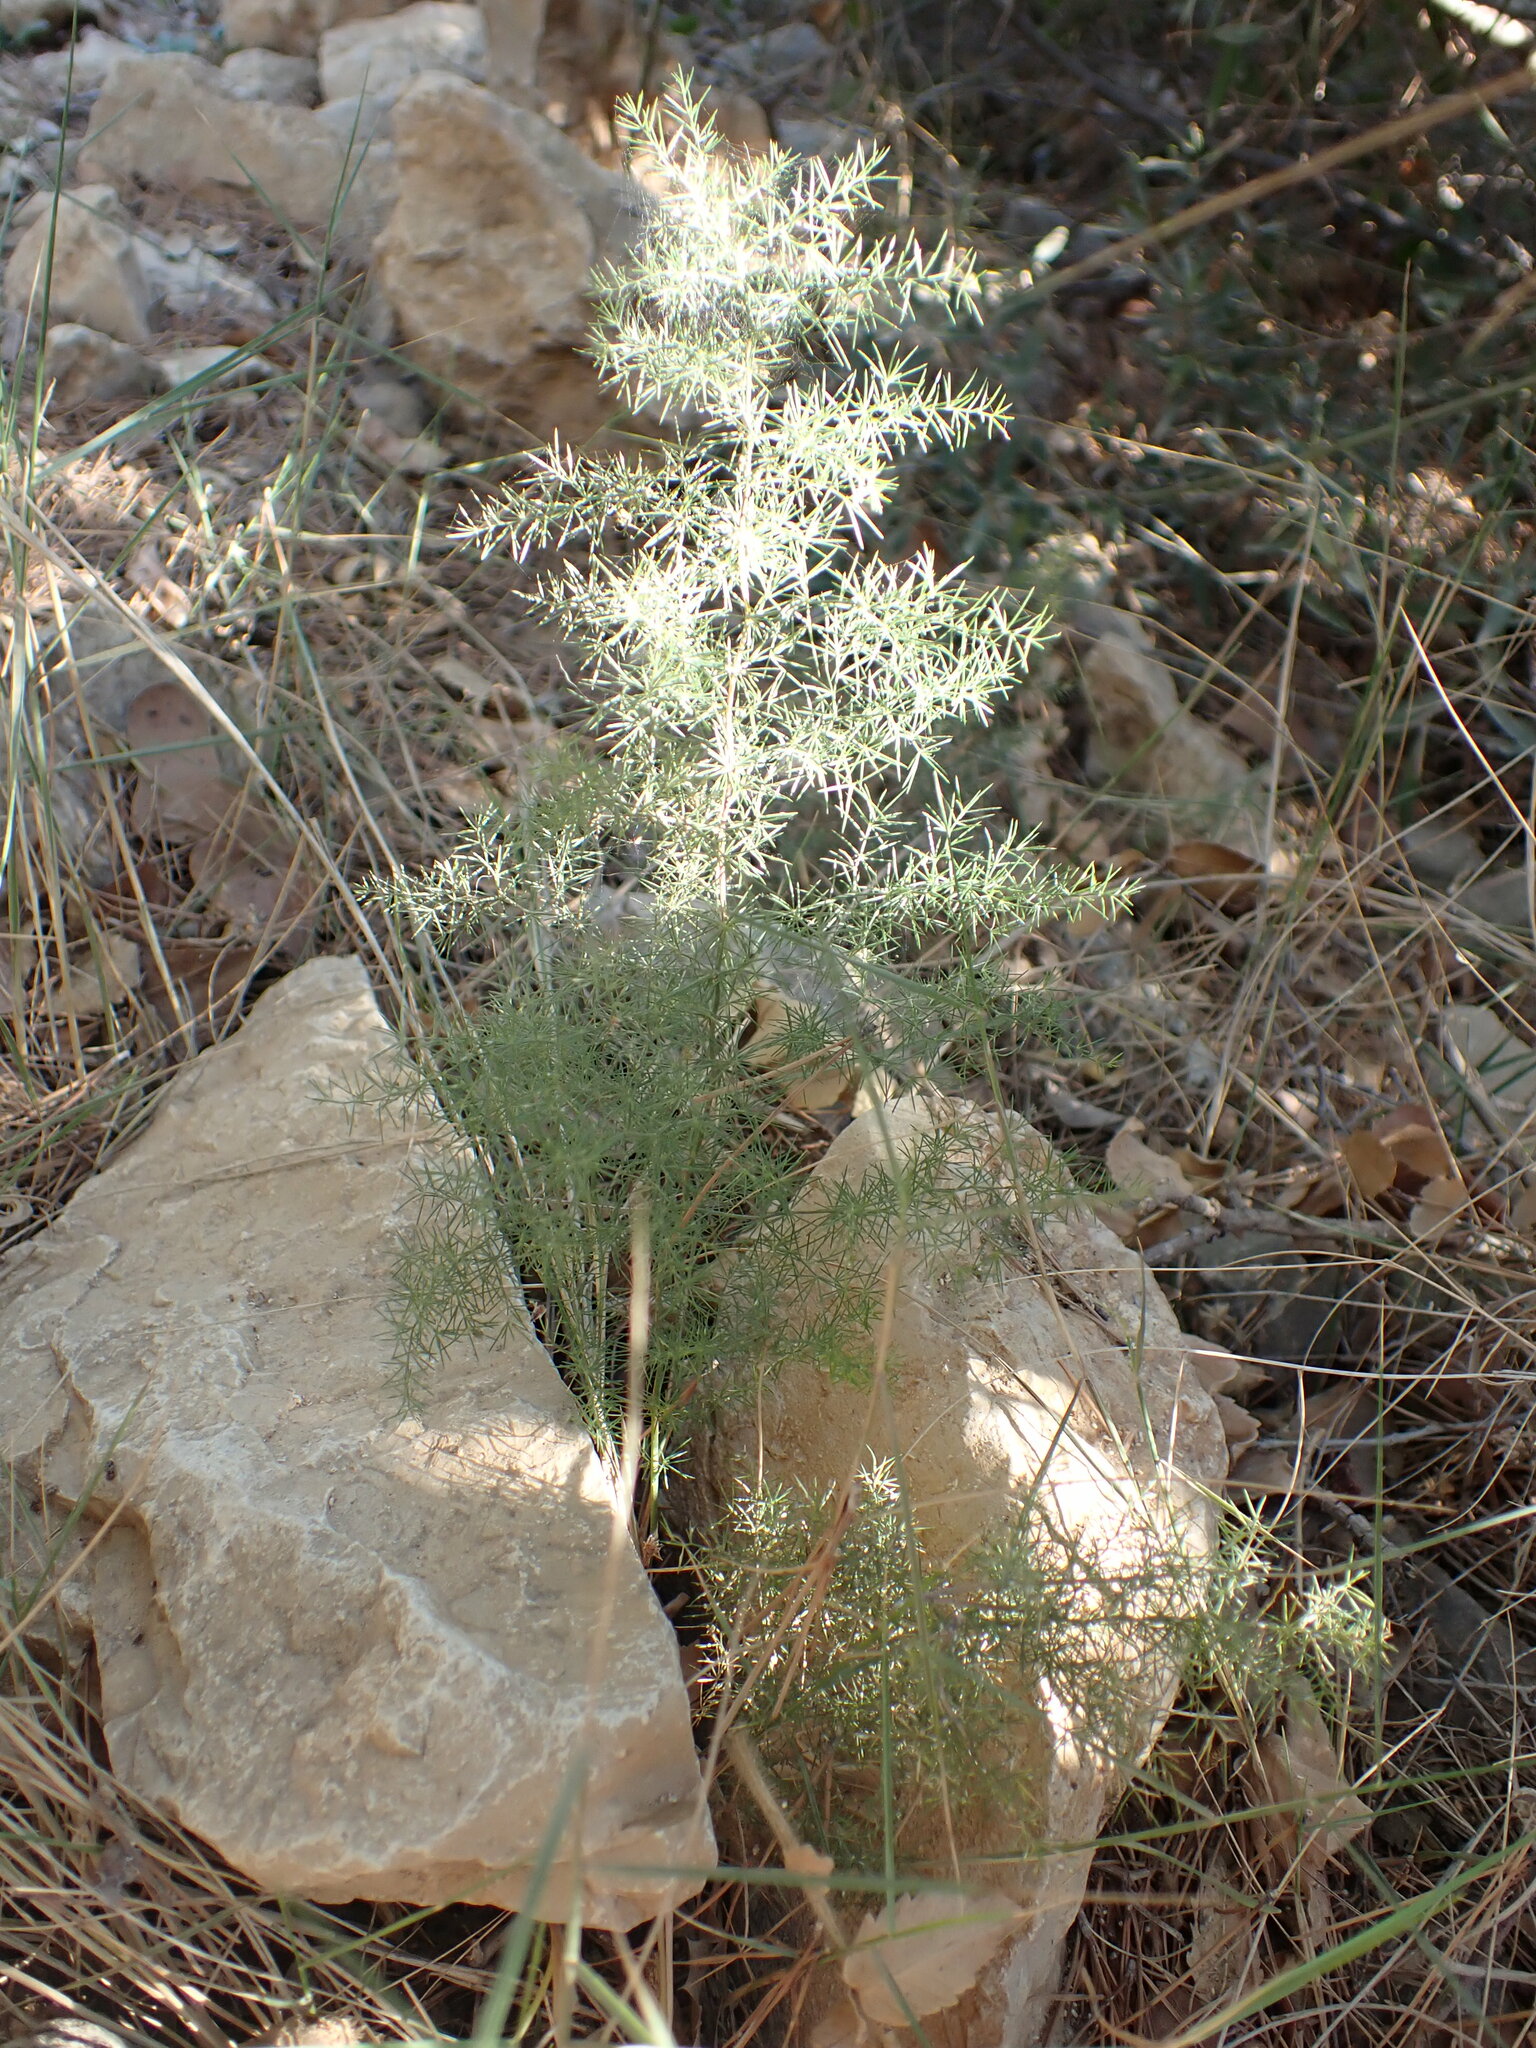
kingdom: Plantae
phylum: Tracheophyta
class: Liliopsida
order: Asparagales
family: Asparagaceae
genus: Asparagus
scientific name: Asparagus acutifolius
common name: Wild asparagus
